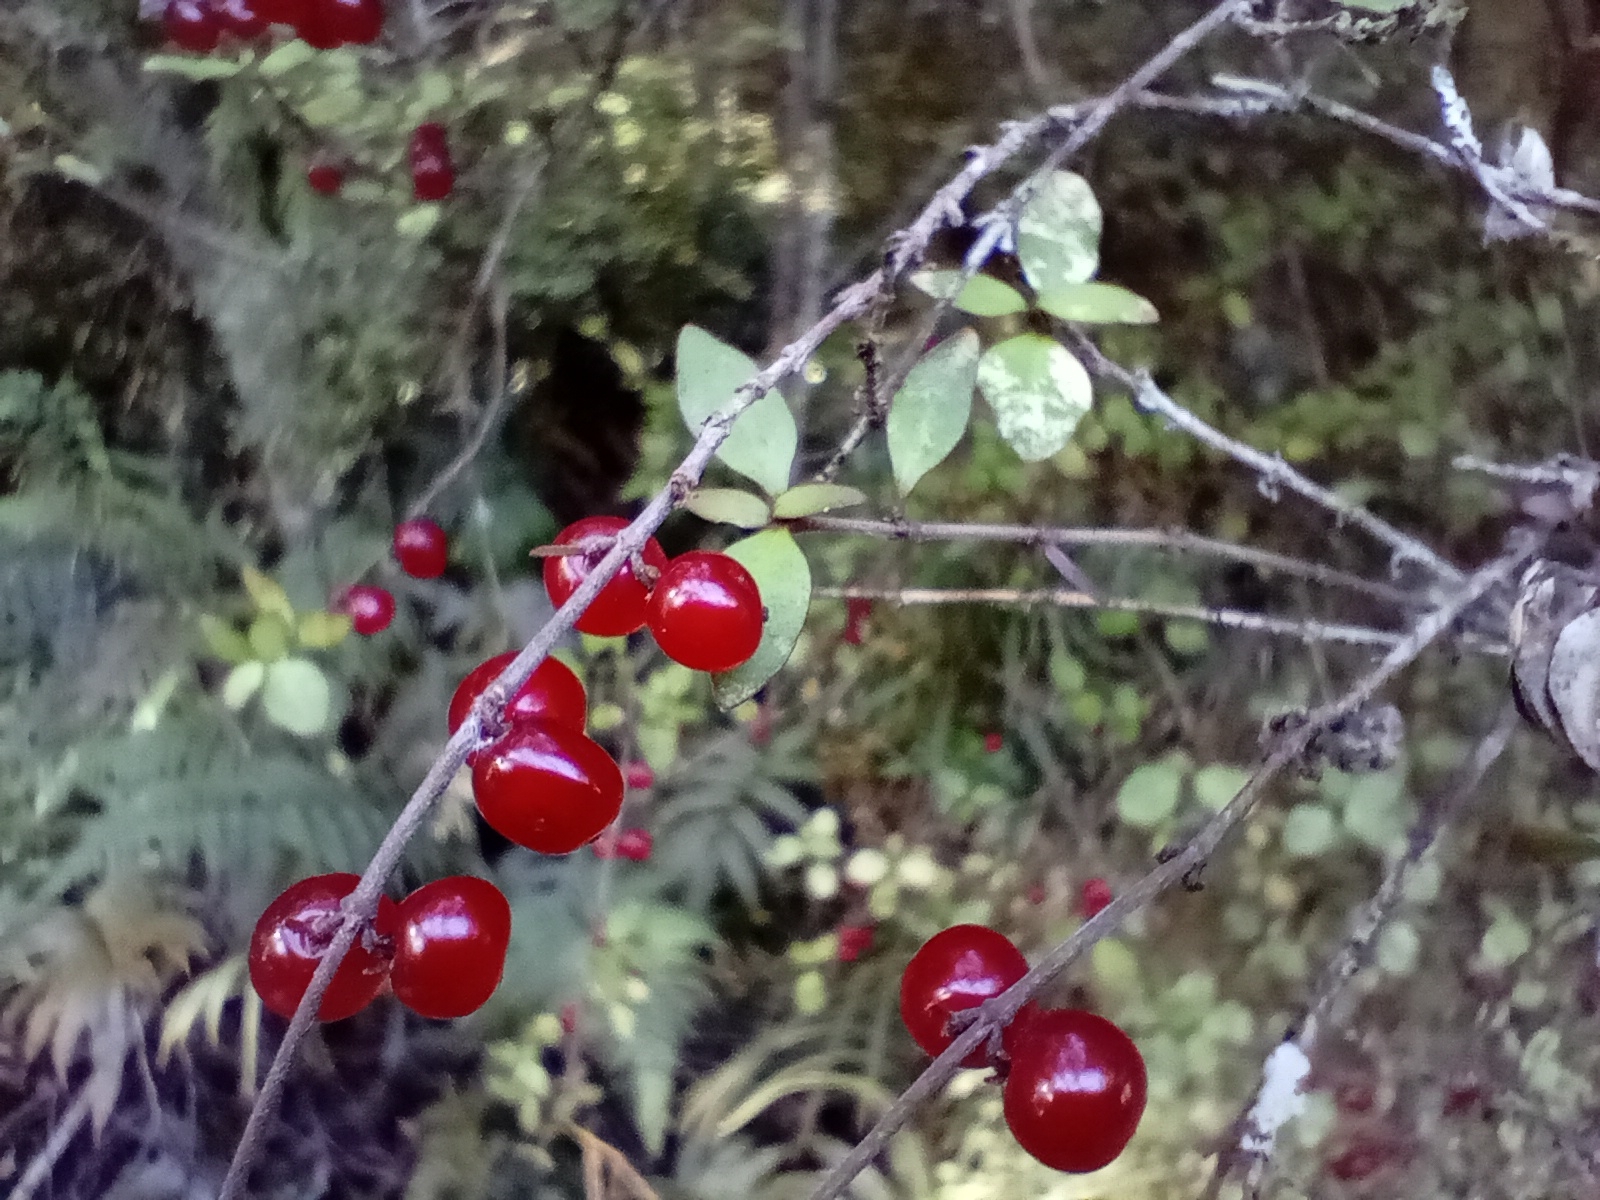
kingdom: Plantae
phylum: Tracheophyta
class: Magnoliopsida
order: Gentianales
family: Rubiaceae
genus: Coprosma
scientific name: Coprosma rhamnoides
